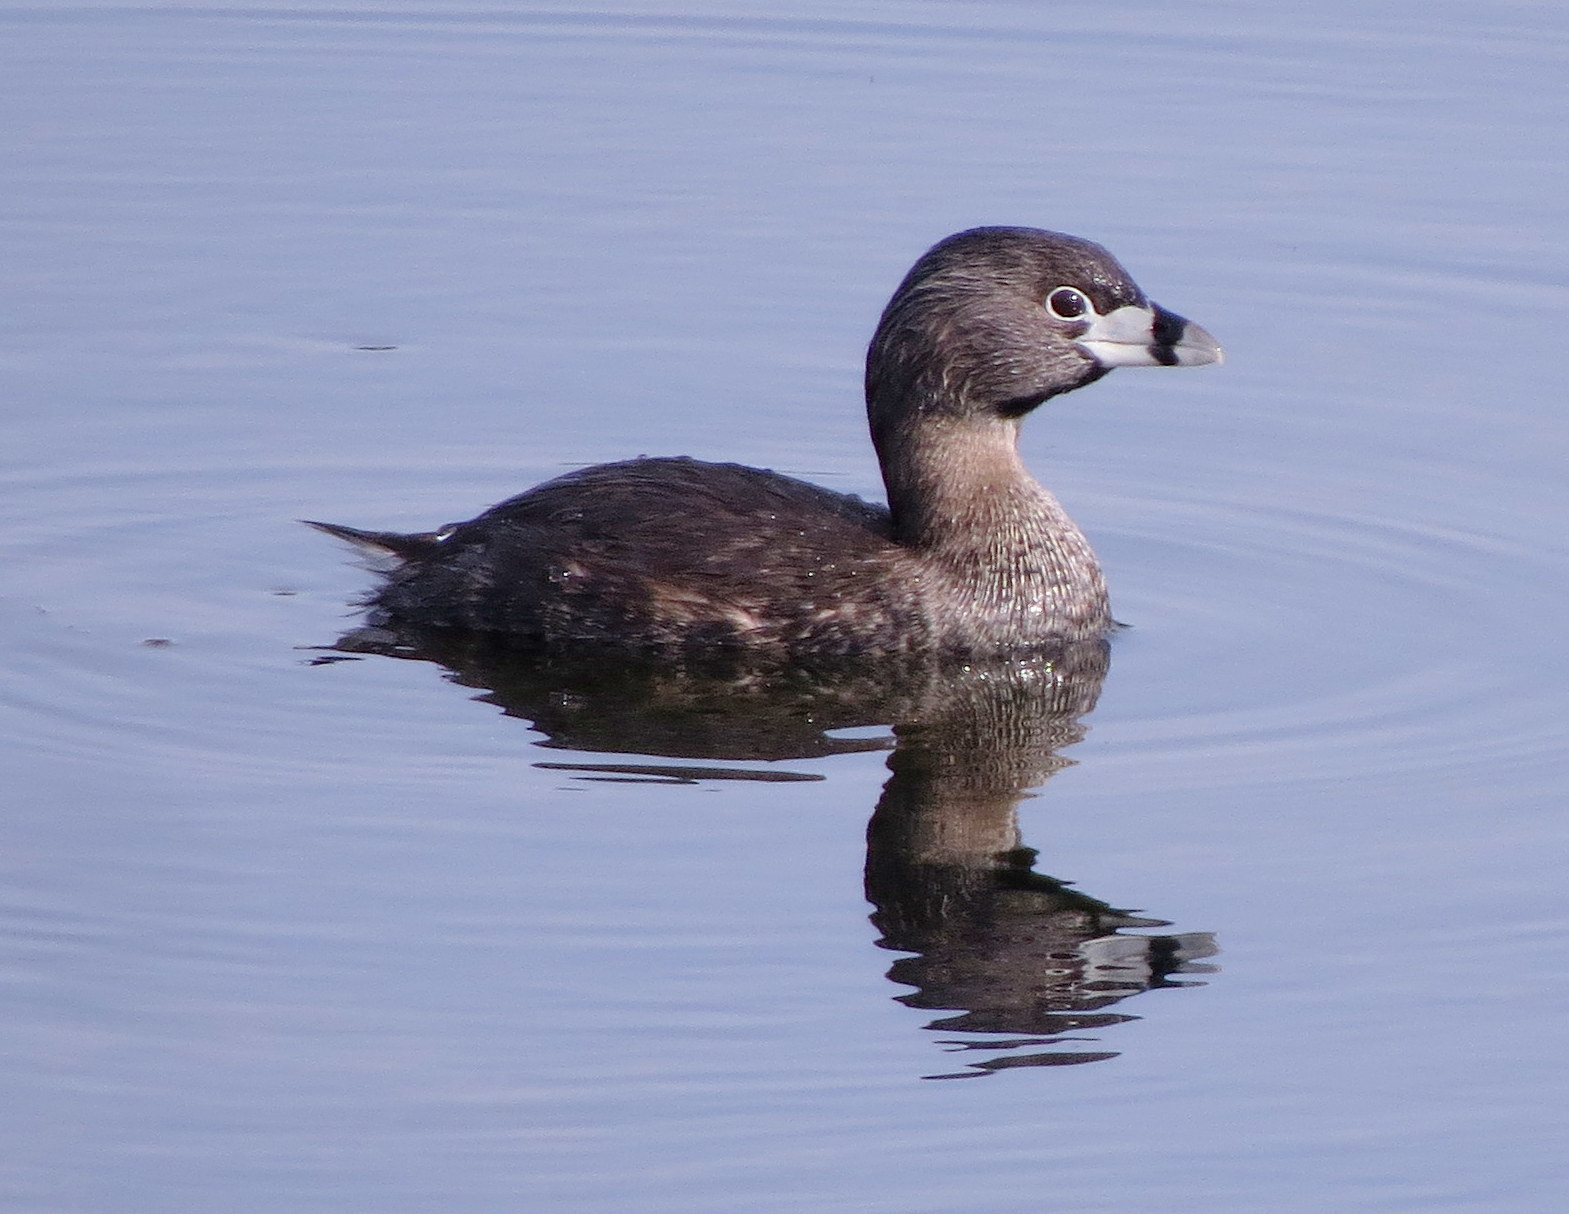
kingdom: Animalia
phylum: Chordata
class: Aves
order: Podicipediformes
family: Podicipedidae
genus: Podilymbus
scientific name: Podilymbus podiceps
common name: Pied-billed grebe
